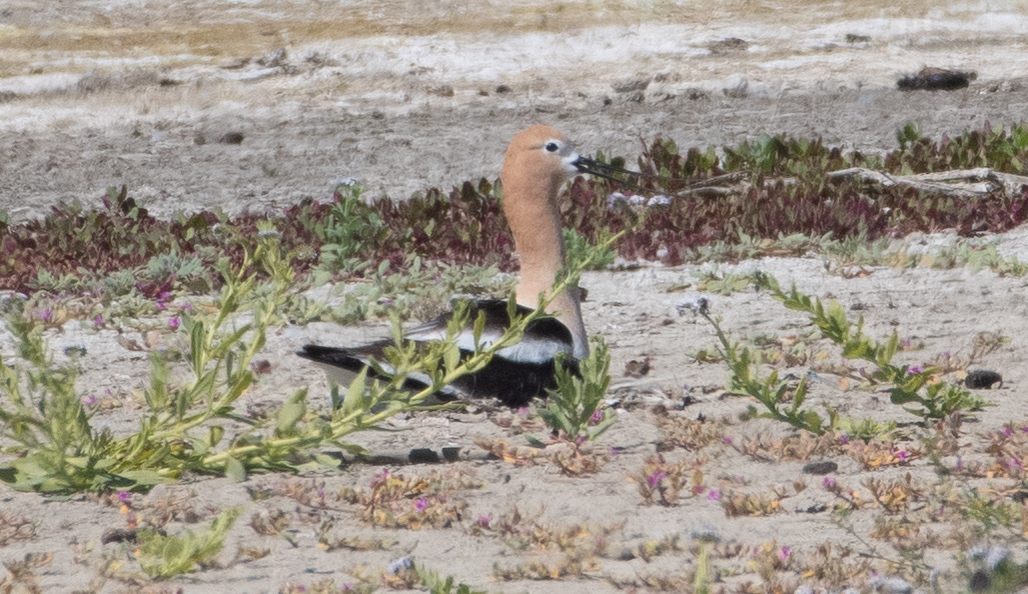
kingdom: Animalia
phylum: Chordata
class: Aves
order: Charadriiformes
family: Recurvirostridae
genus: Recurvirostra
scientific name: Recurvirostra americana
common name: American avocet
